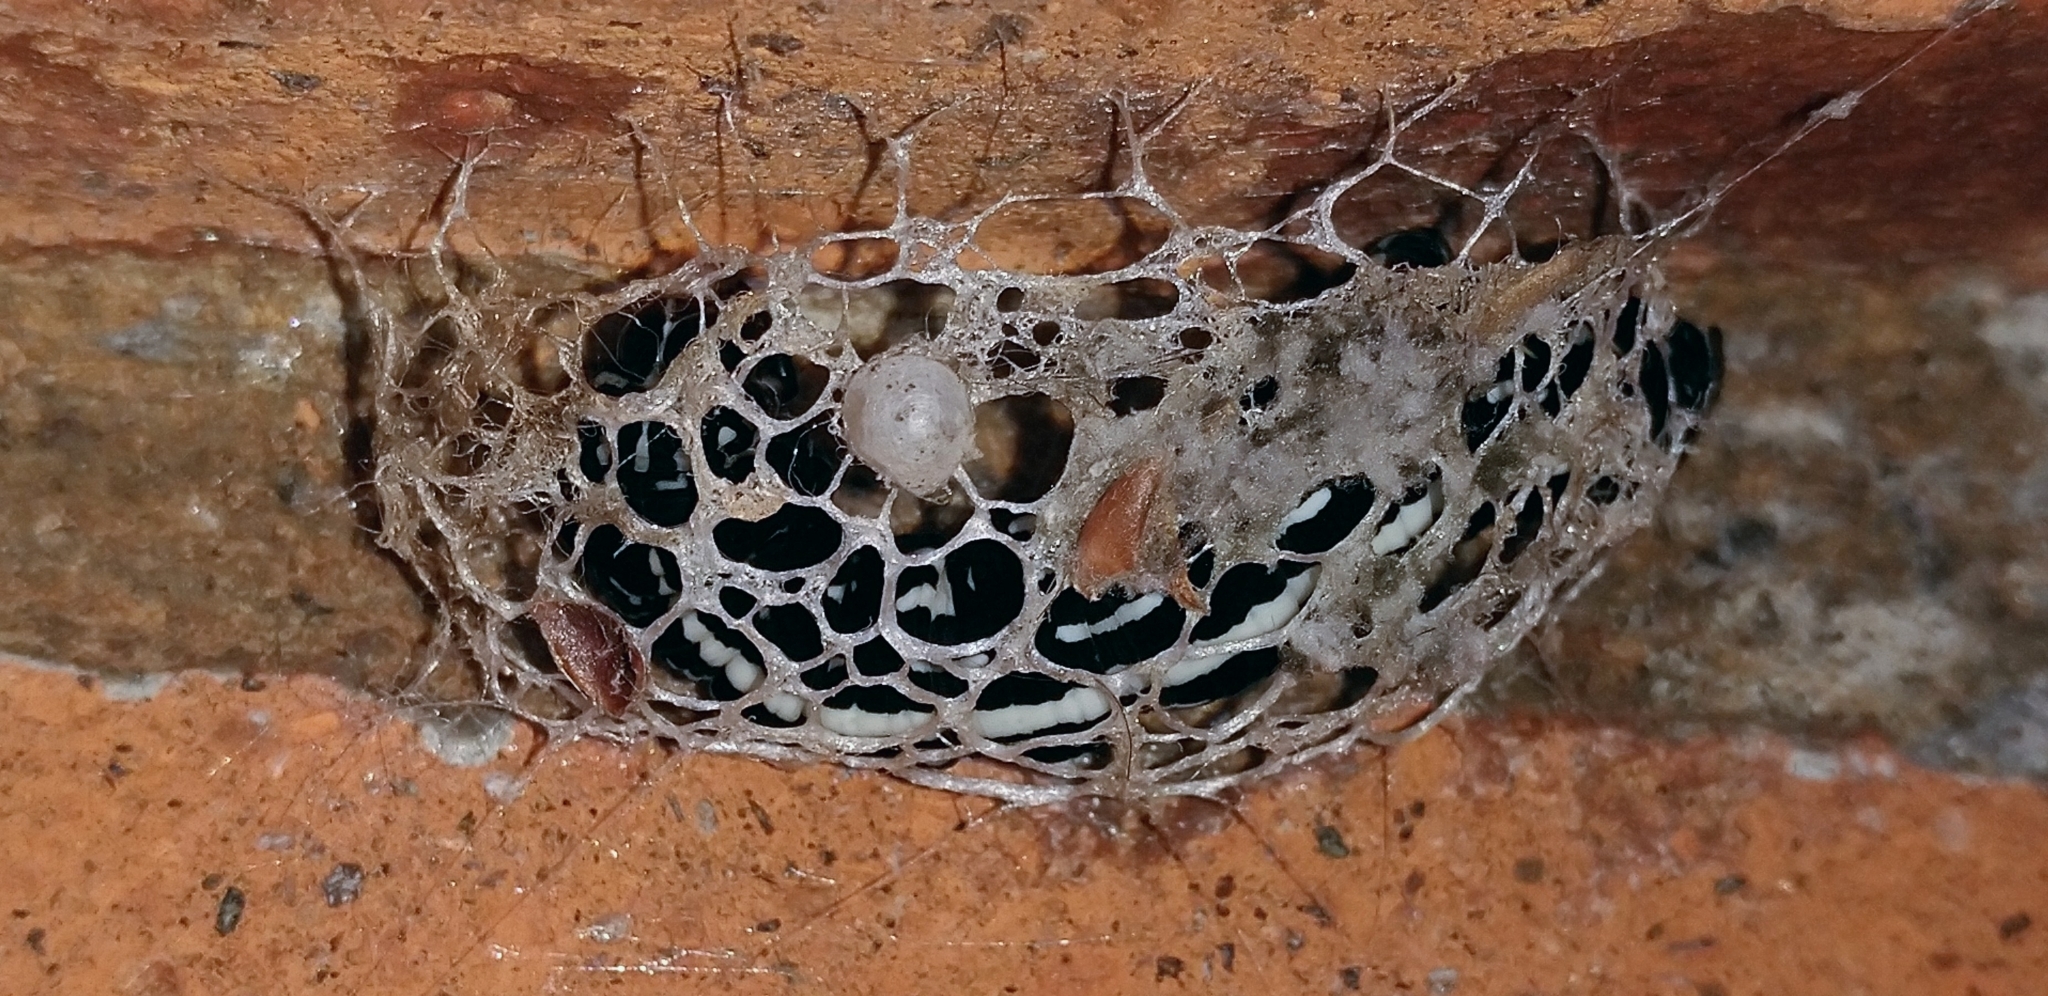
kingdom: Animalia
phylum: Arthropoda
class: Insecta
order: Lepidoptera
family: Geometridae
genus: Acronyctodes
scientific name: Acronyctodes mexicanaria
